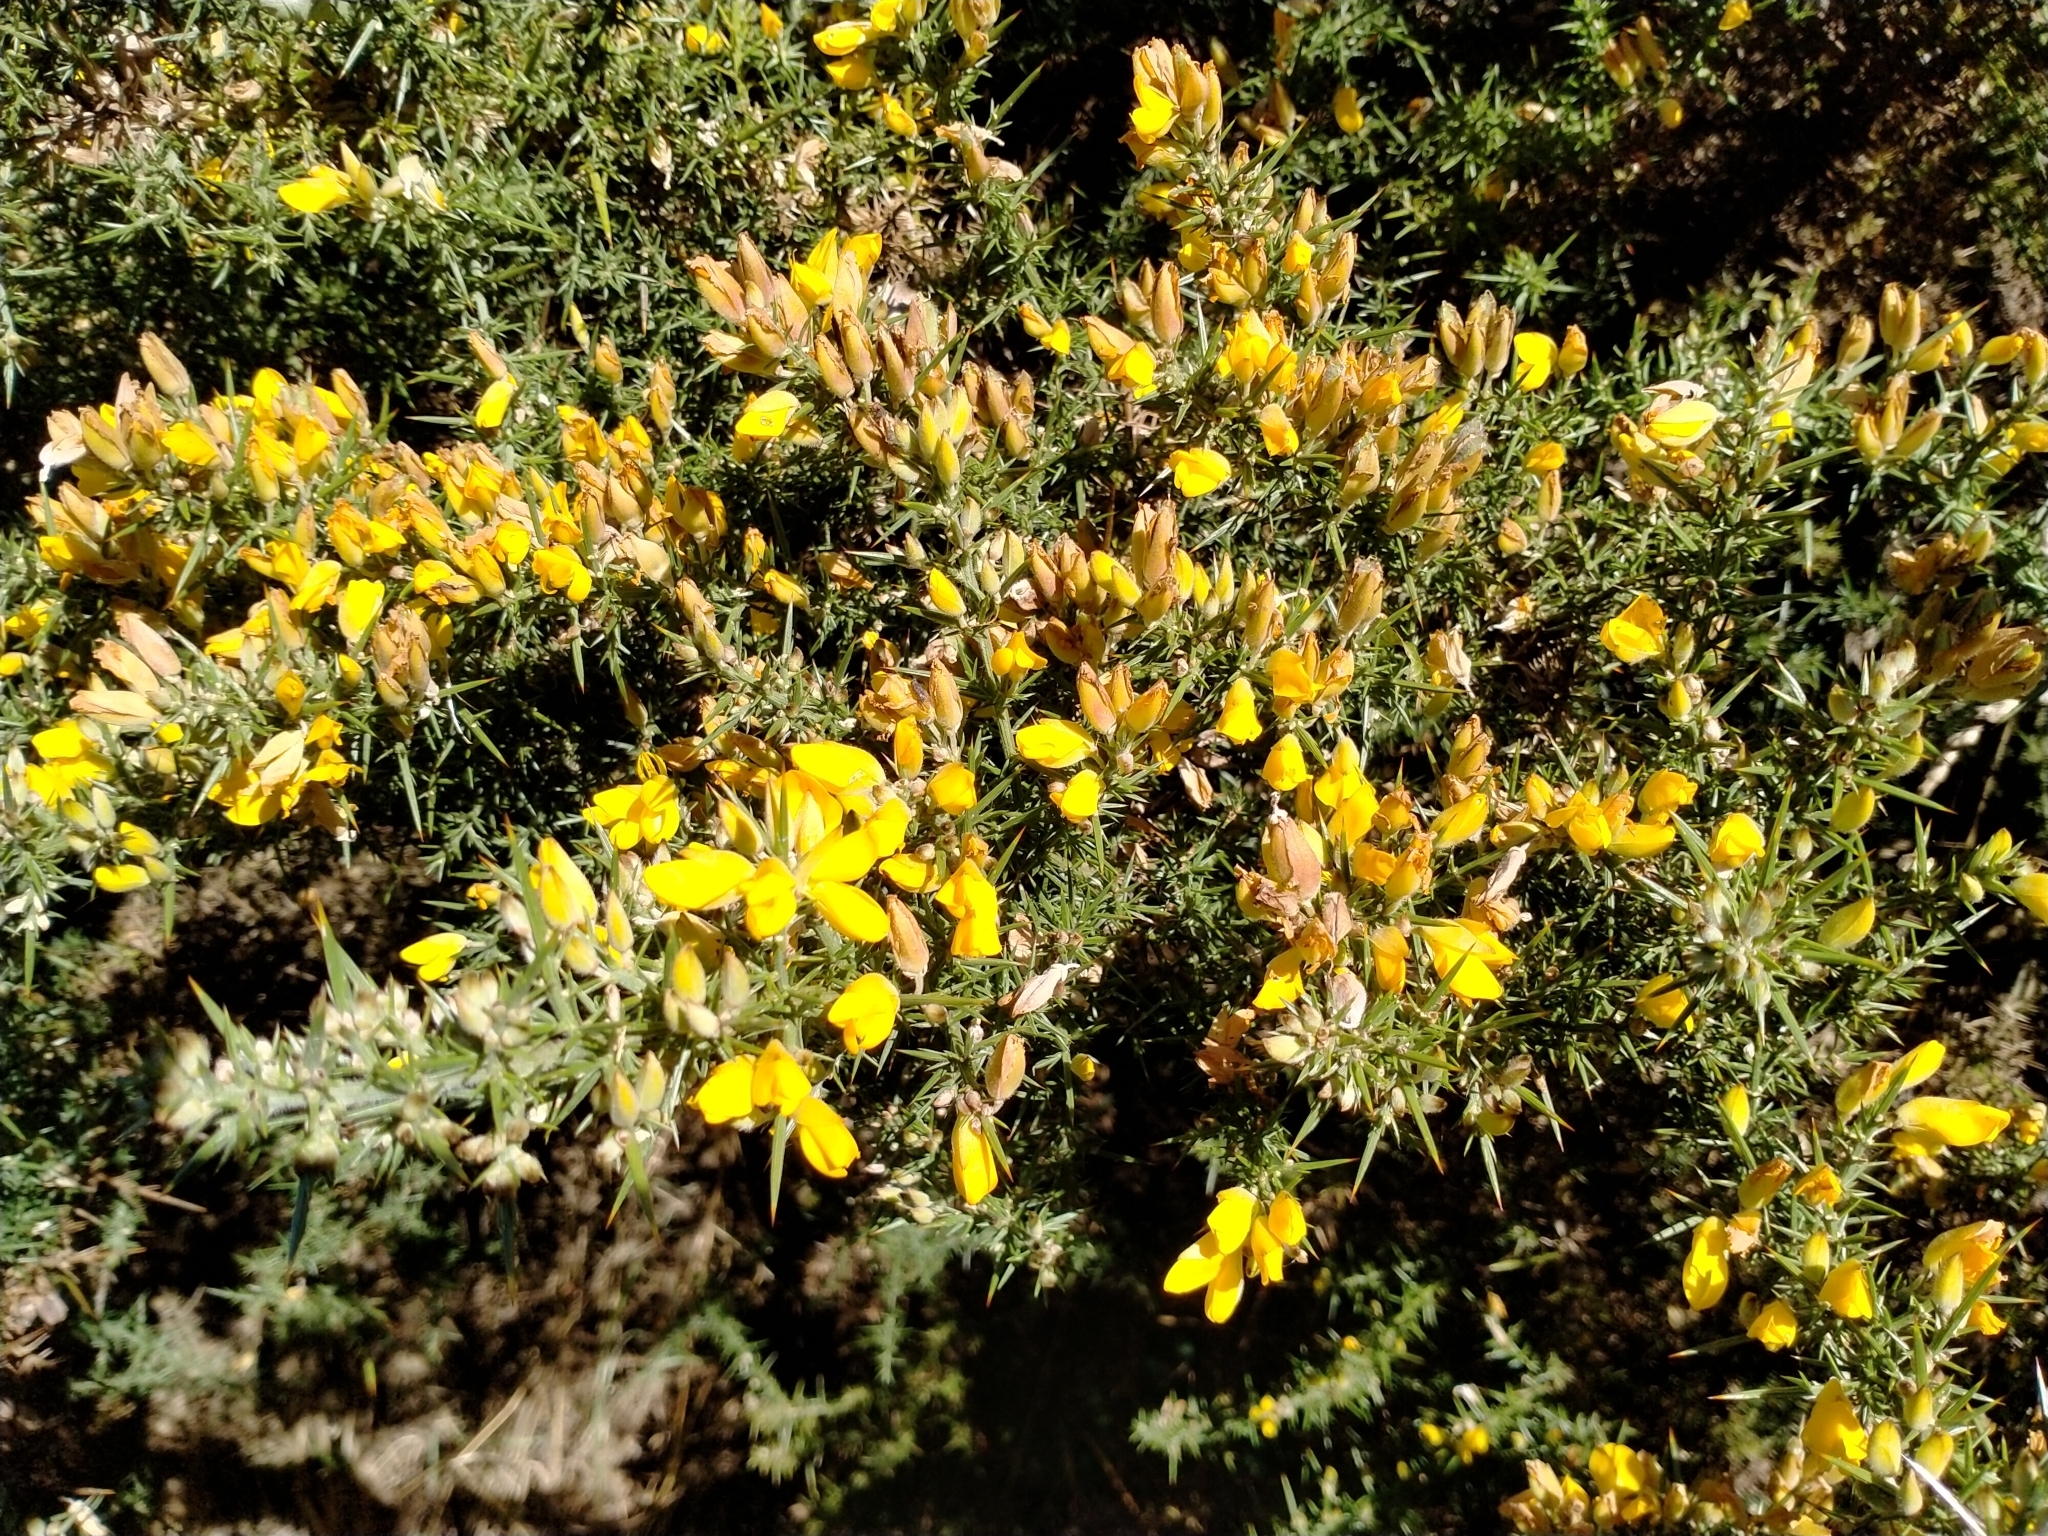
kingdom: Plantae
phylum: Tracheophyta
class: Magnoliopsida
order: Fabales
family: Fabaceae
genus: Ulex
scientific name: Ulex europaeus
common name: Common gorse
